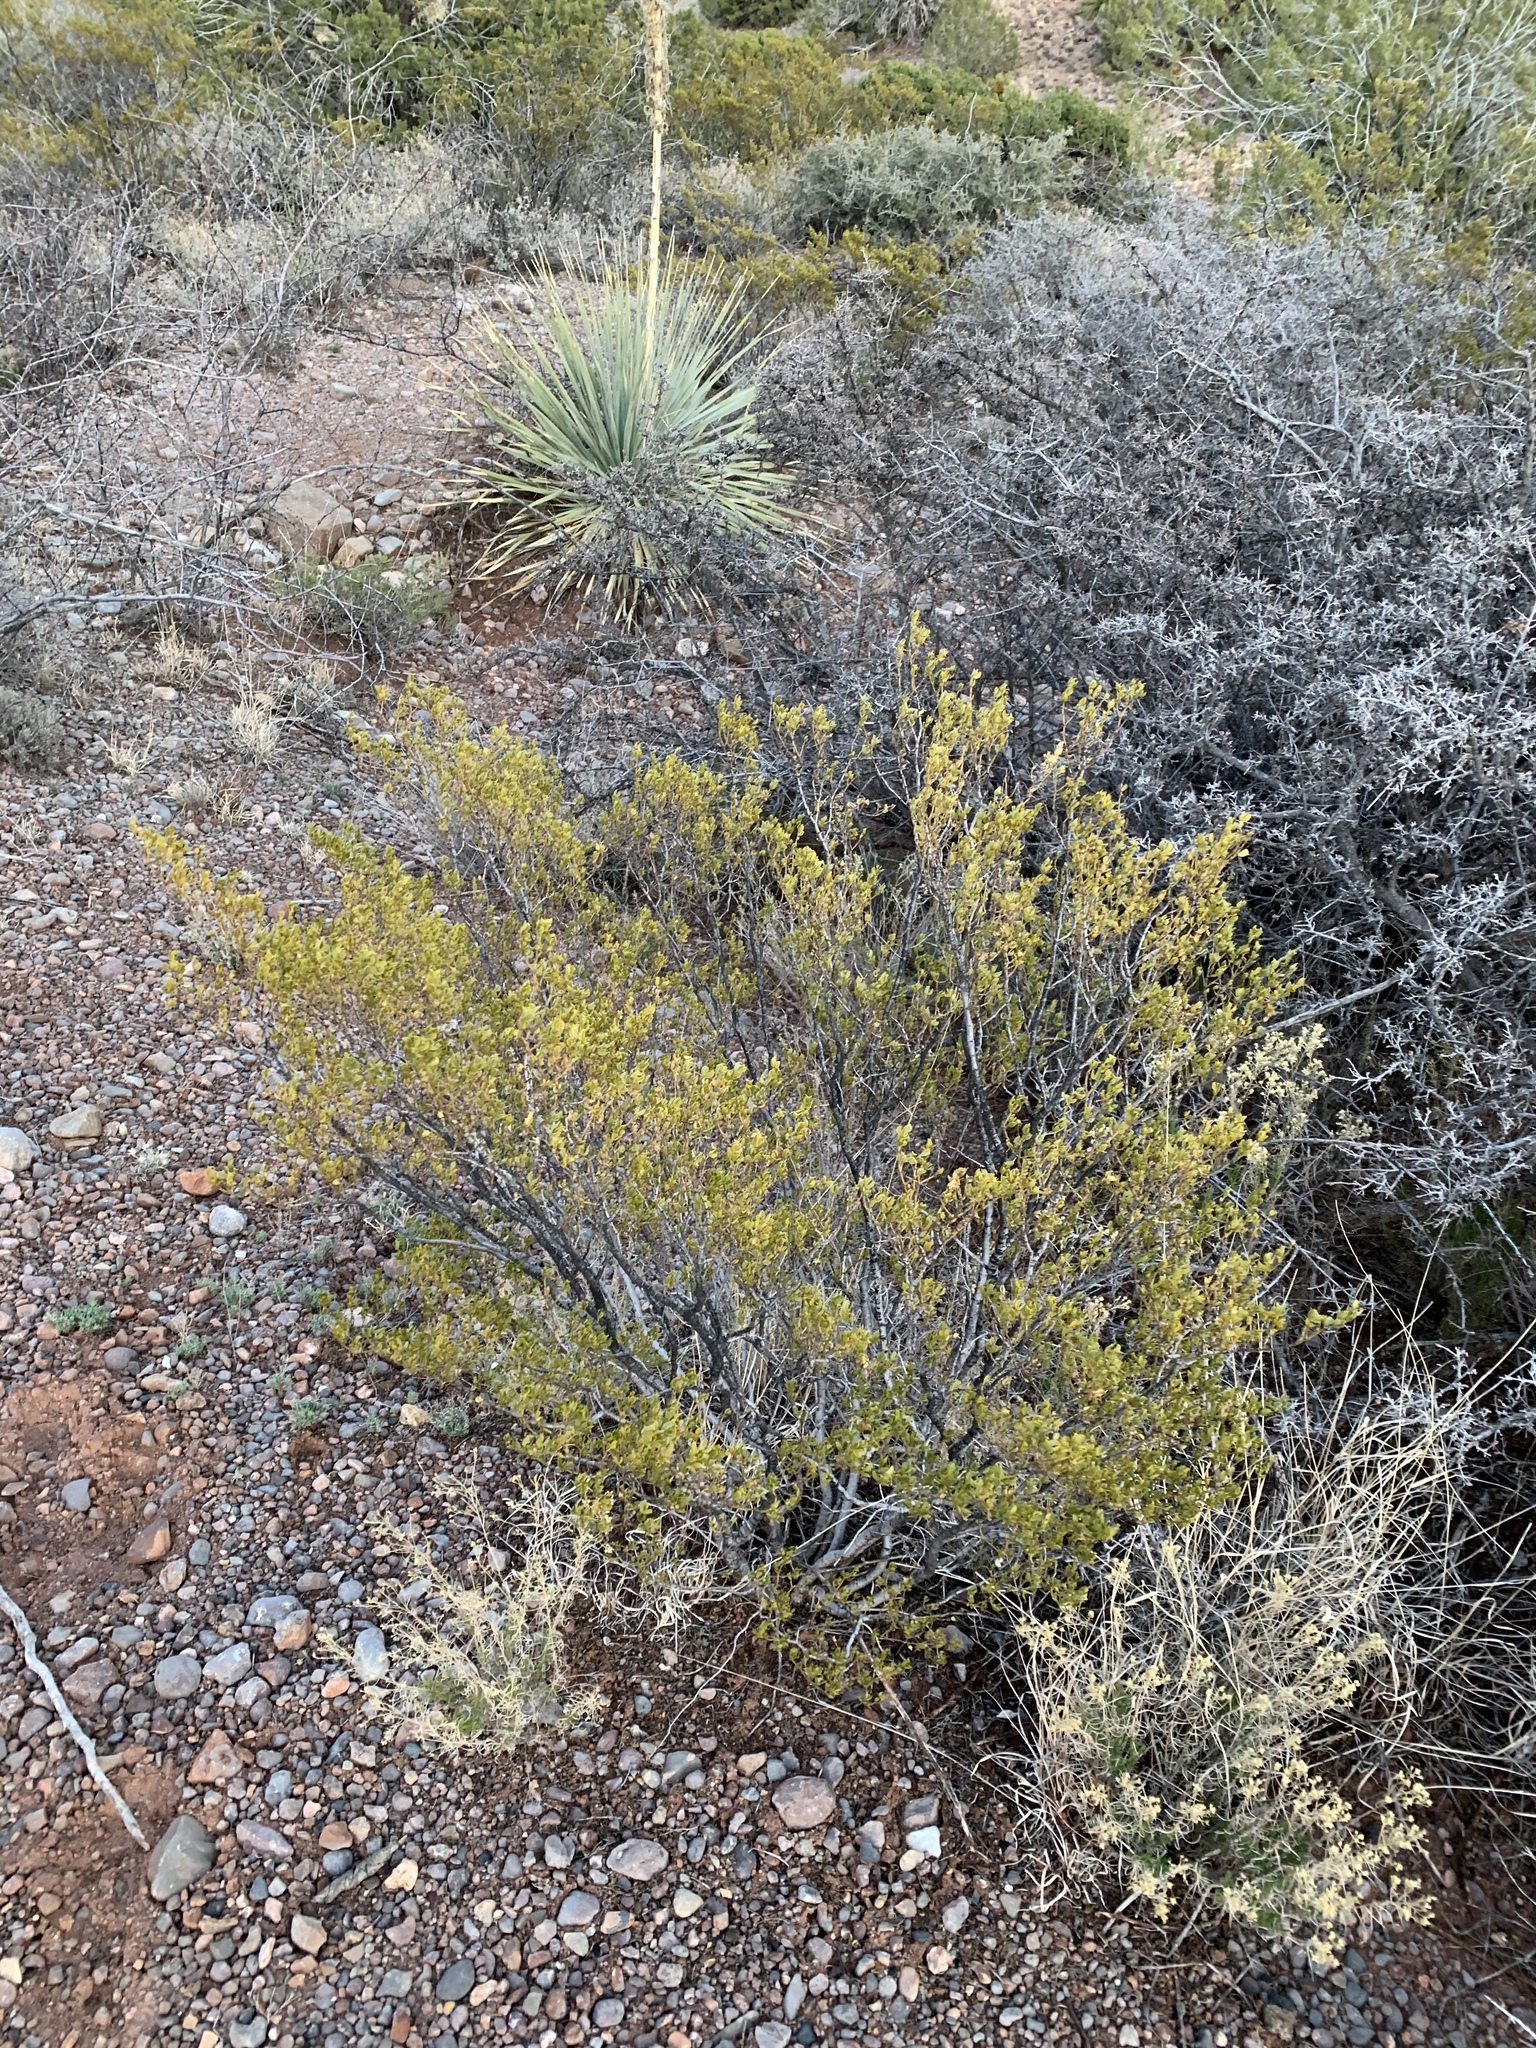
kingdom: Plantae
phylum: Tracheophyta
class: Magnoliopsida
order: Zygophyllales
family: Zygophyllaceae
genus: Larrea
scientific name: Larrea tridentata
